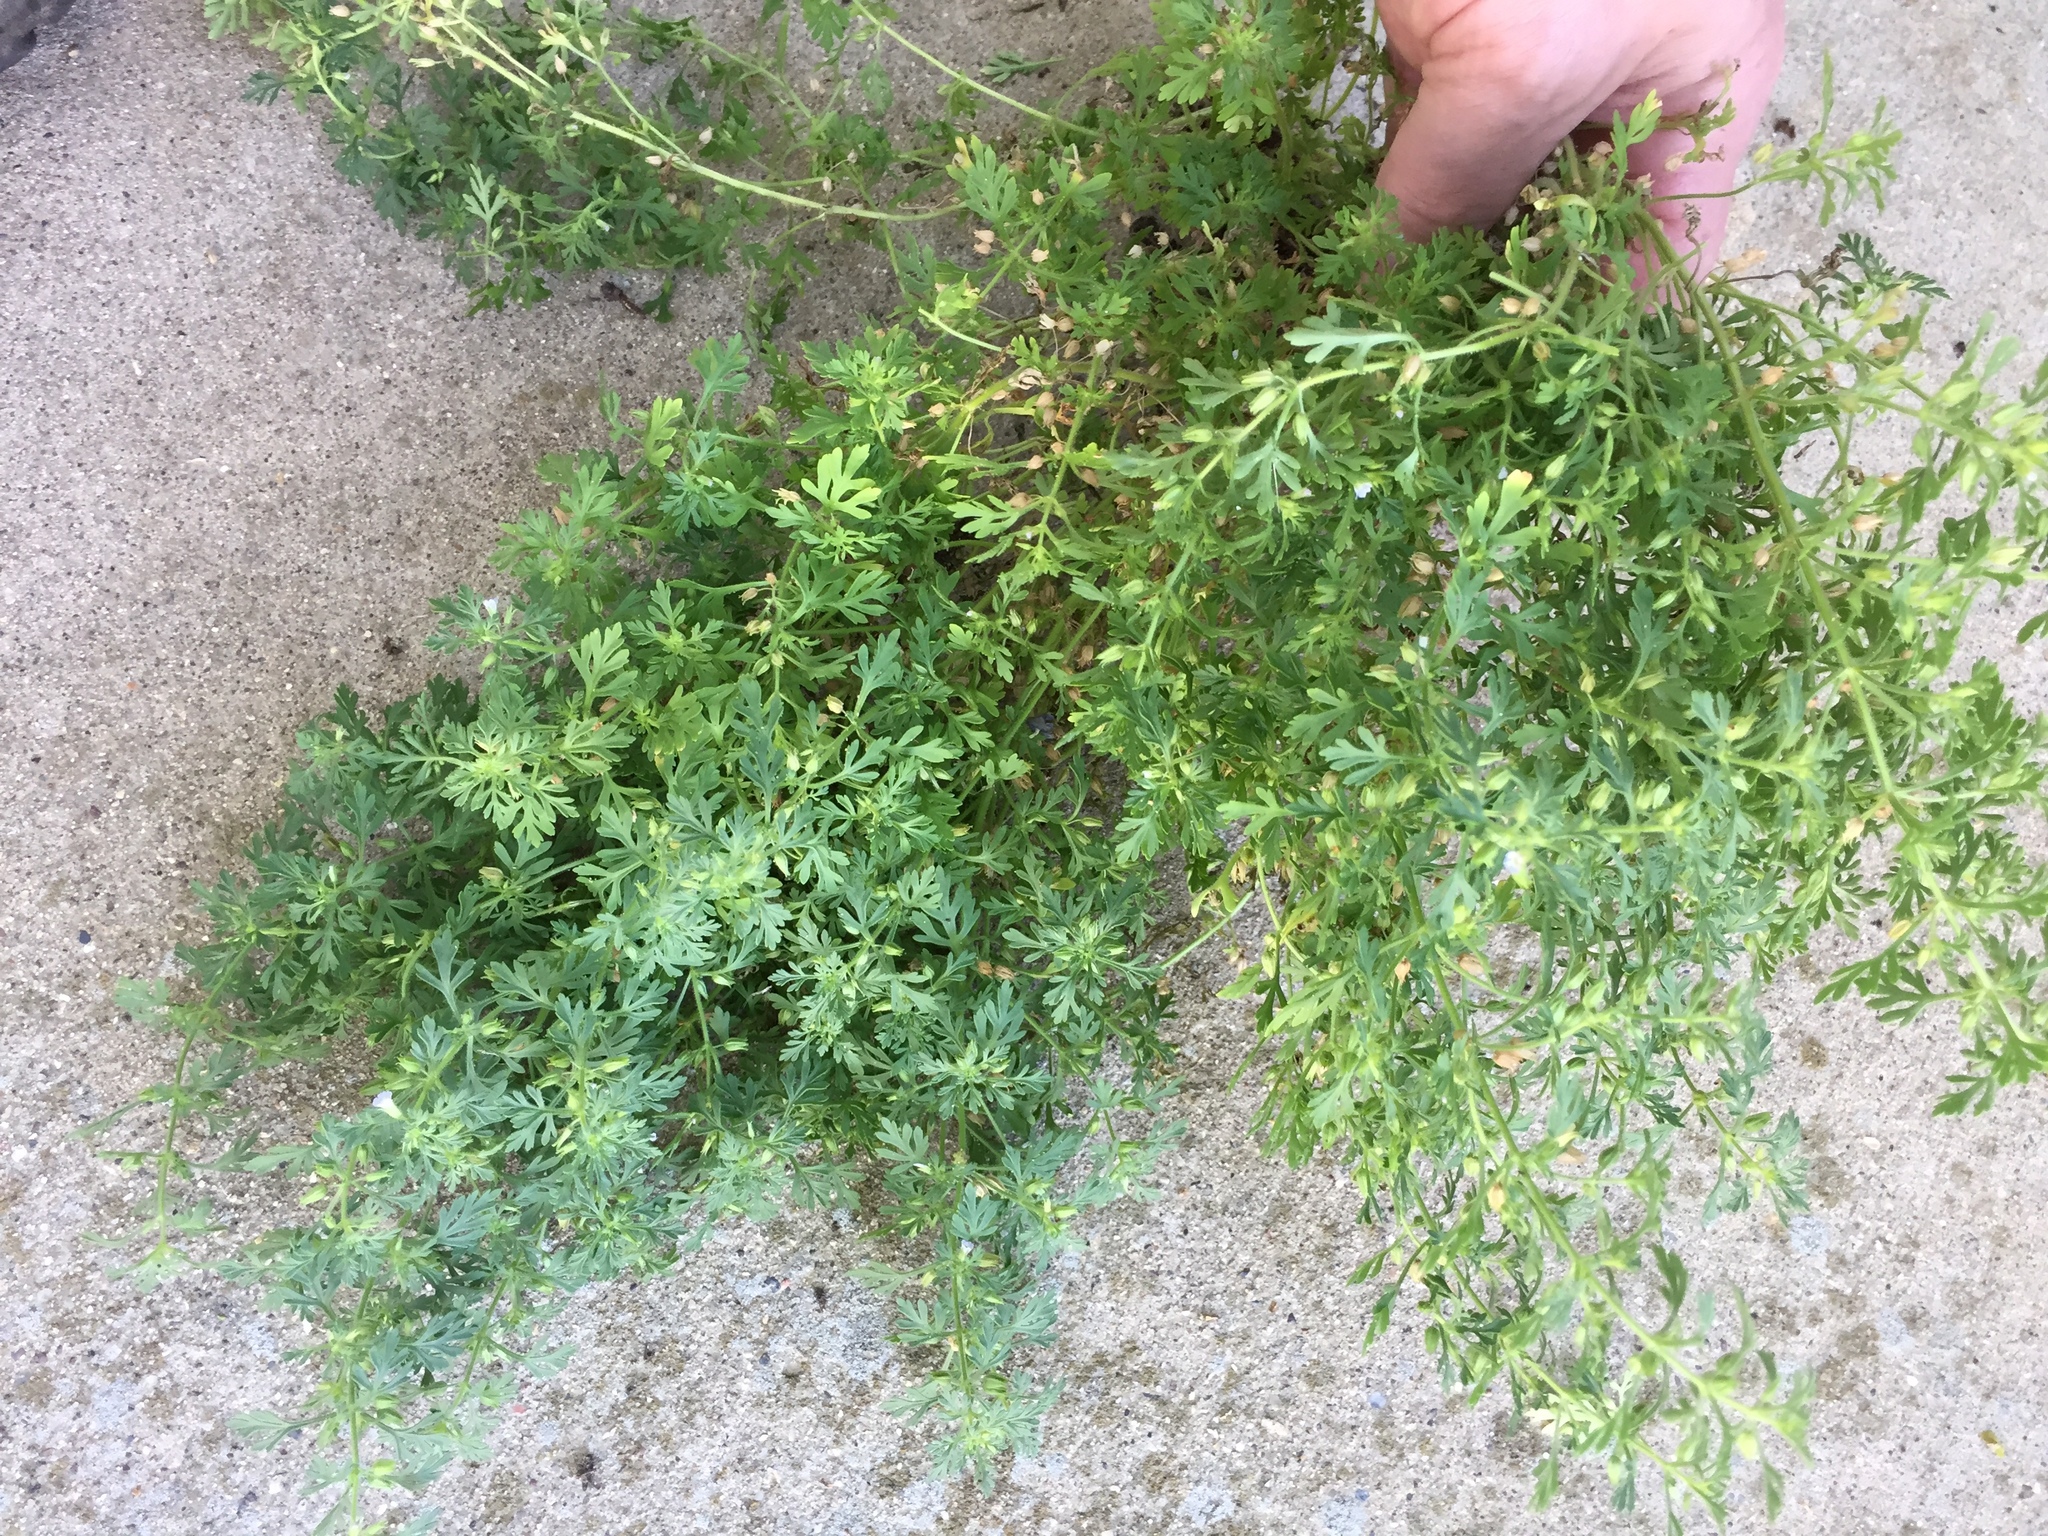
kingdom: Plantae
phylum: Tracheophyta
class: Magnoliopsida
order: Lamiales
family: Plantaginaceae
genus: Leucospora
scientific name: Leucospora multifida
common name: Narrow-leaf paleseed
